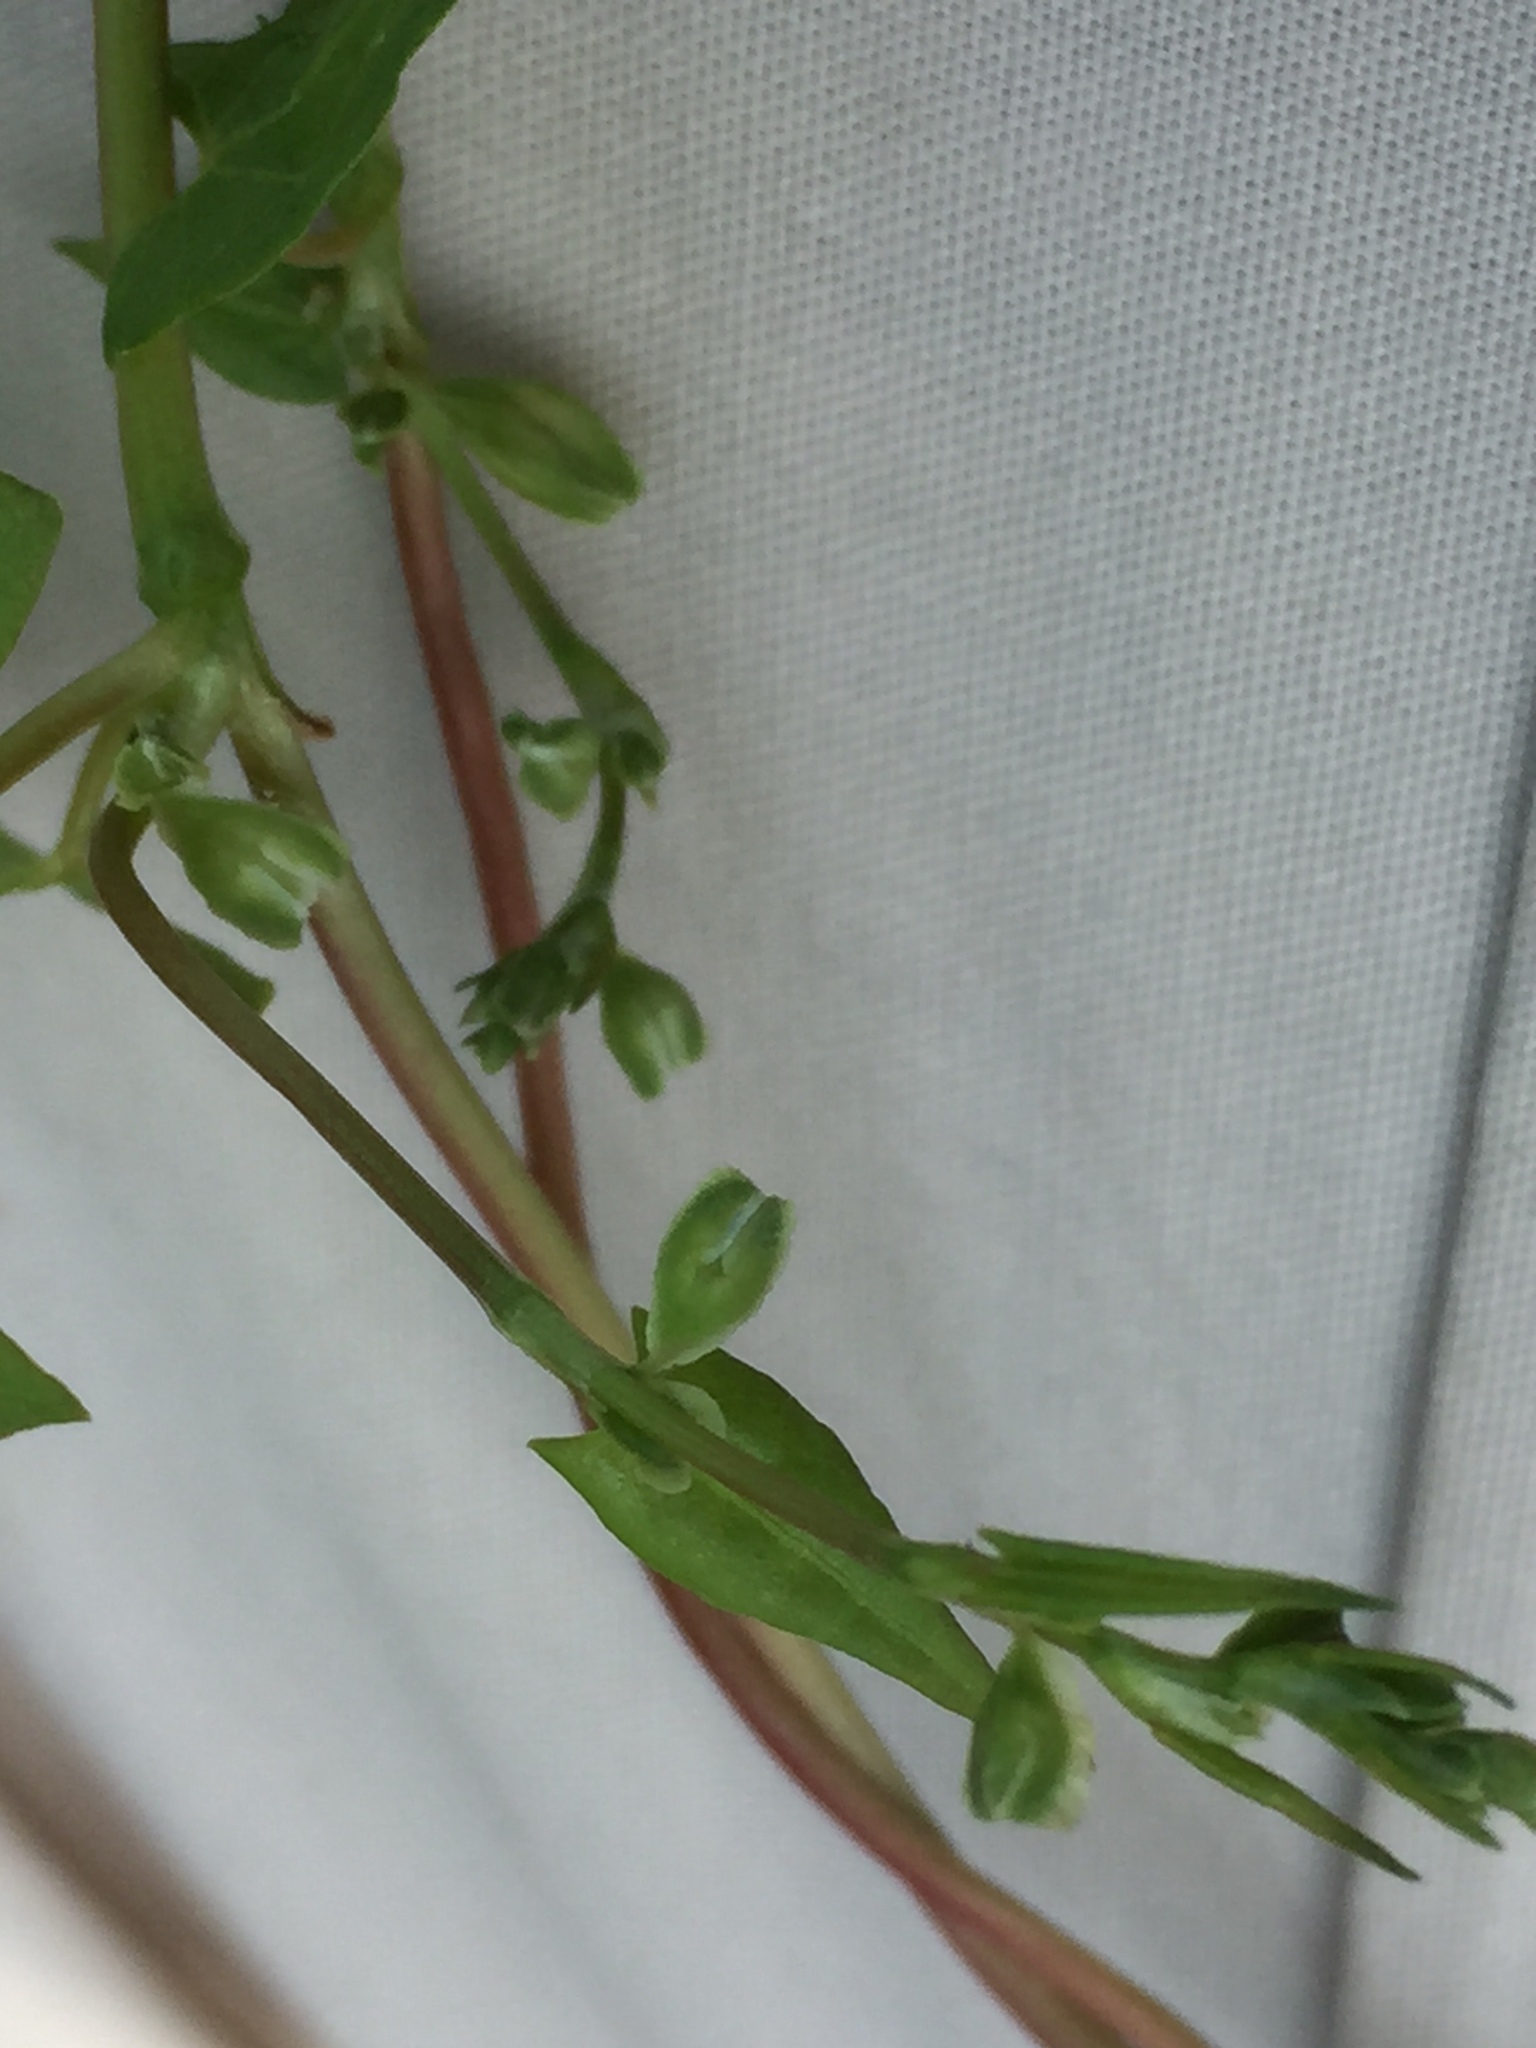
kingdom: Plantae
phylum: Tracheophyta
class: Magnoliopsida
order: Caryophyllales
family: Polygonaceae
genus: Fallopia
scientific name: Fallopia convolvulus
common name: Black bindweed
